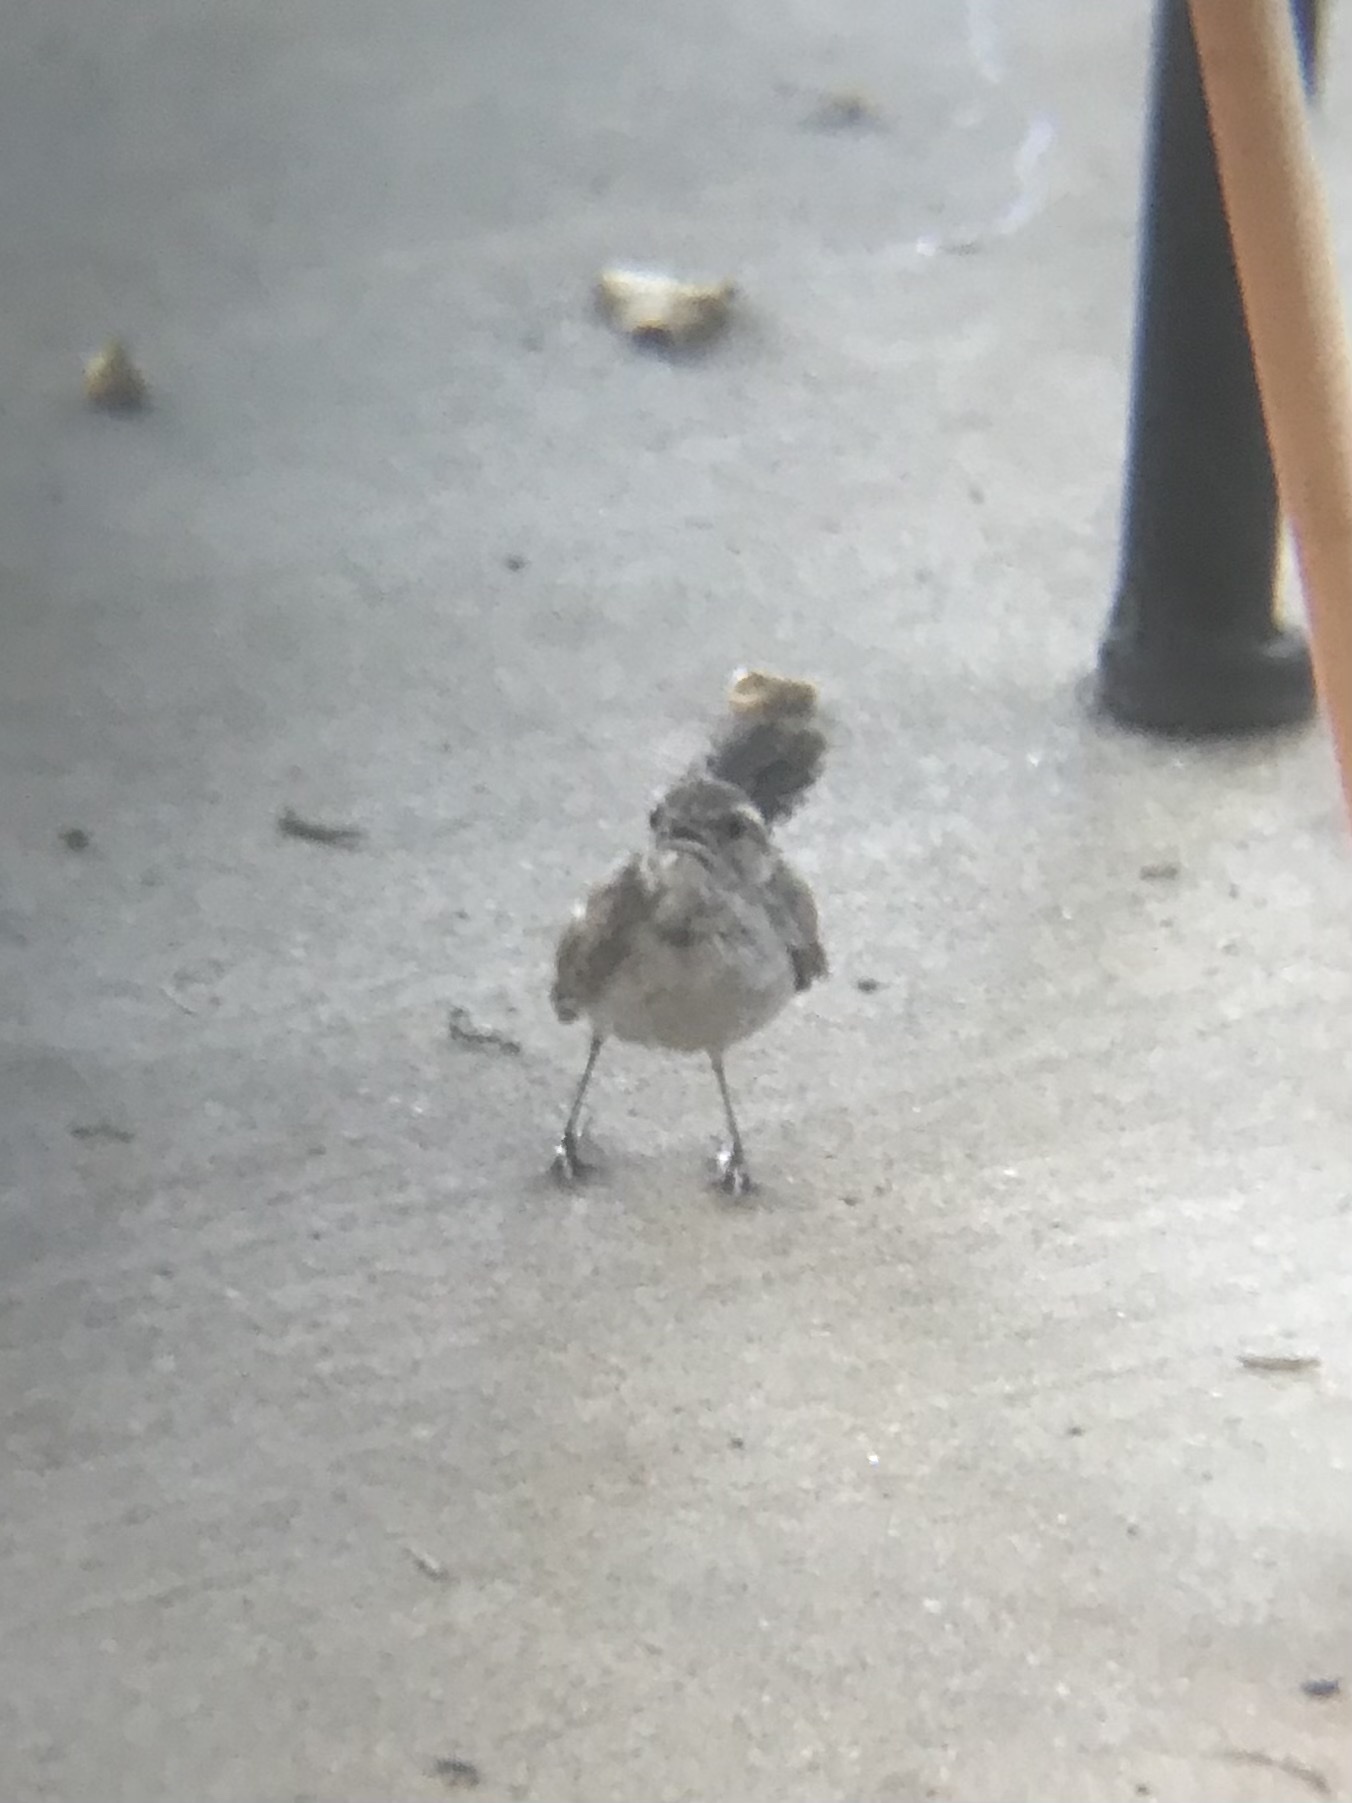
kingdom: Animalia
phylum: Chordata
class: Aves
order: Passeriformes
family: Troglodytidae
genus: Thryothorus
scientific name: Thryothorus ludovicianus
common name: Carolina wren
